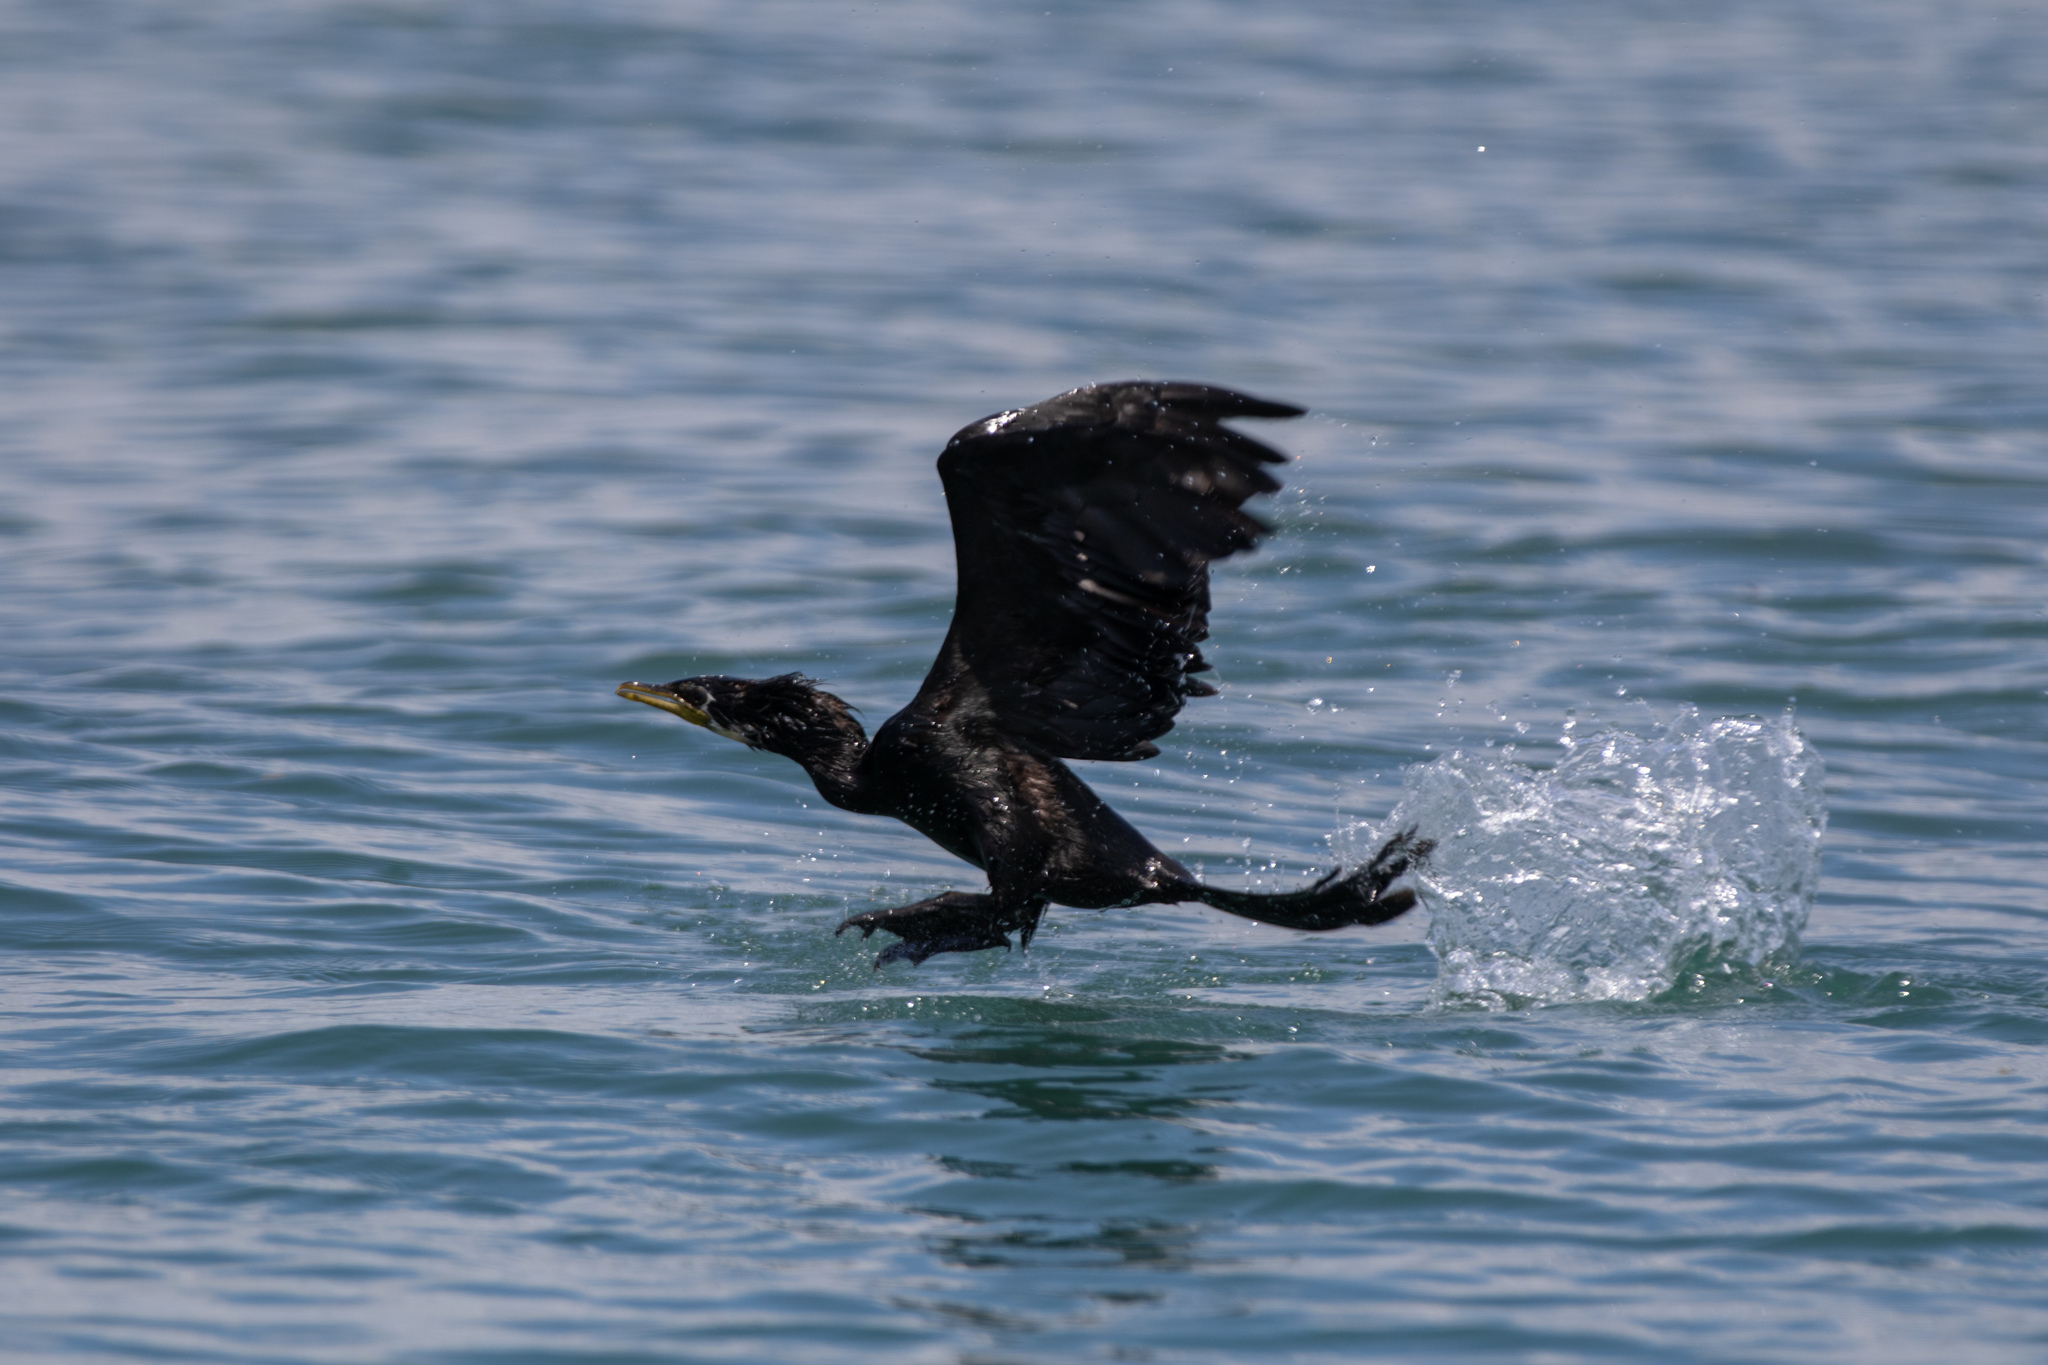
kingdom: Animalia
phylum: Chordata
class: Aves
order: Suliformes
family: Phalacrocoracidae
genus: Microcarbo
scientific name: Microcarbo melanoleucos
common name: Little pied cormorant
